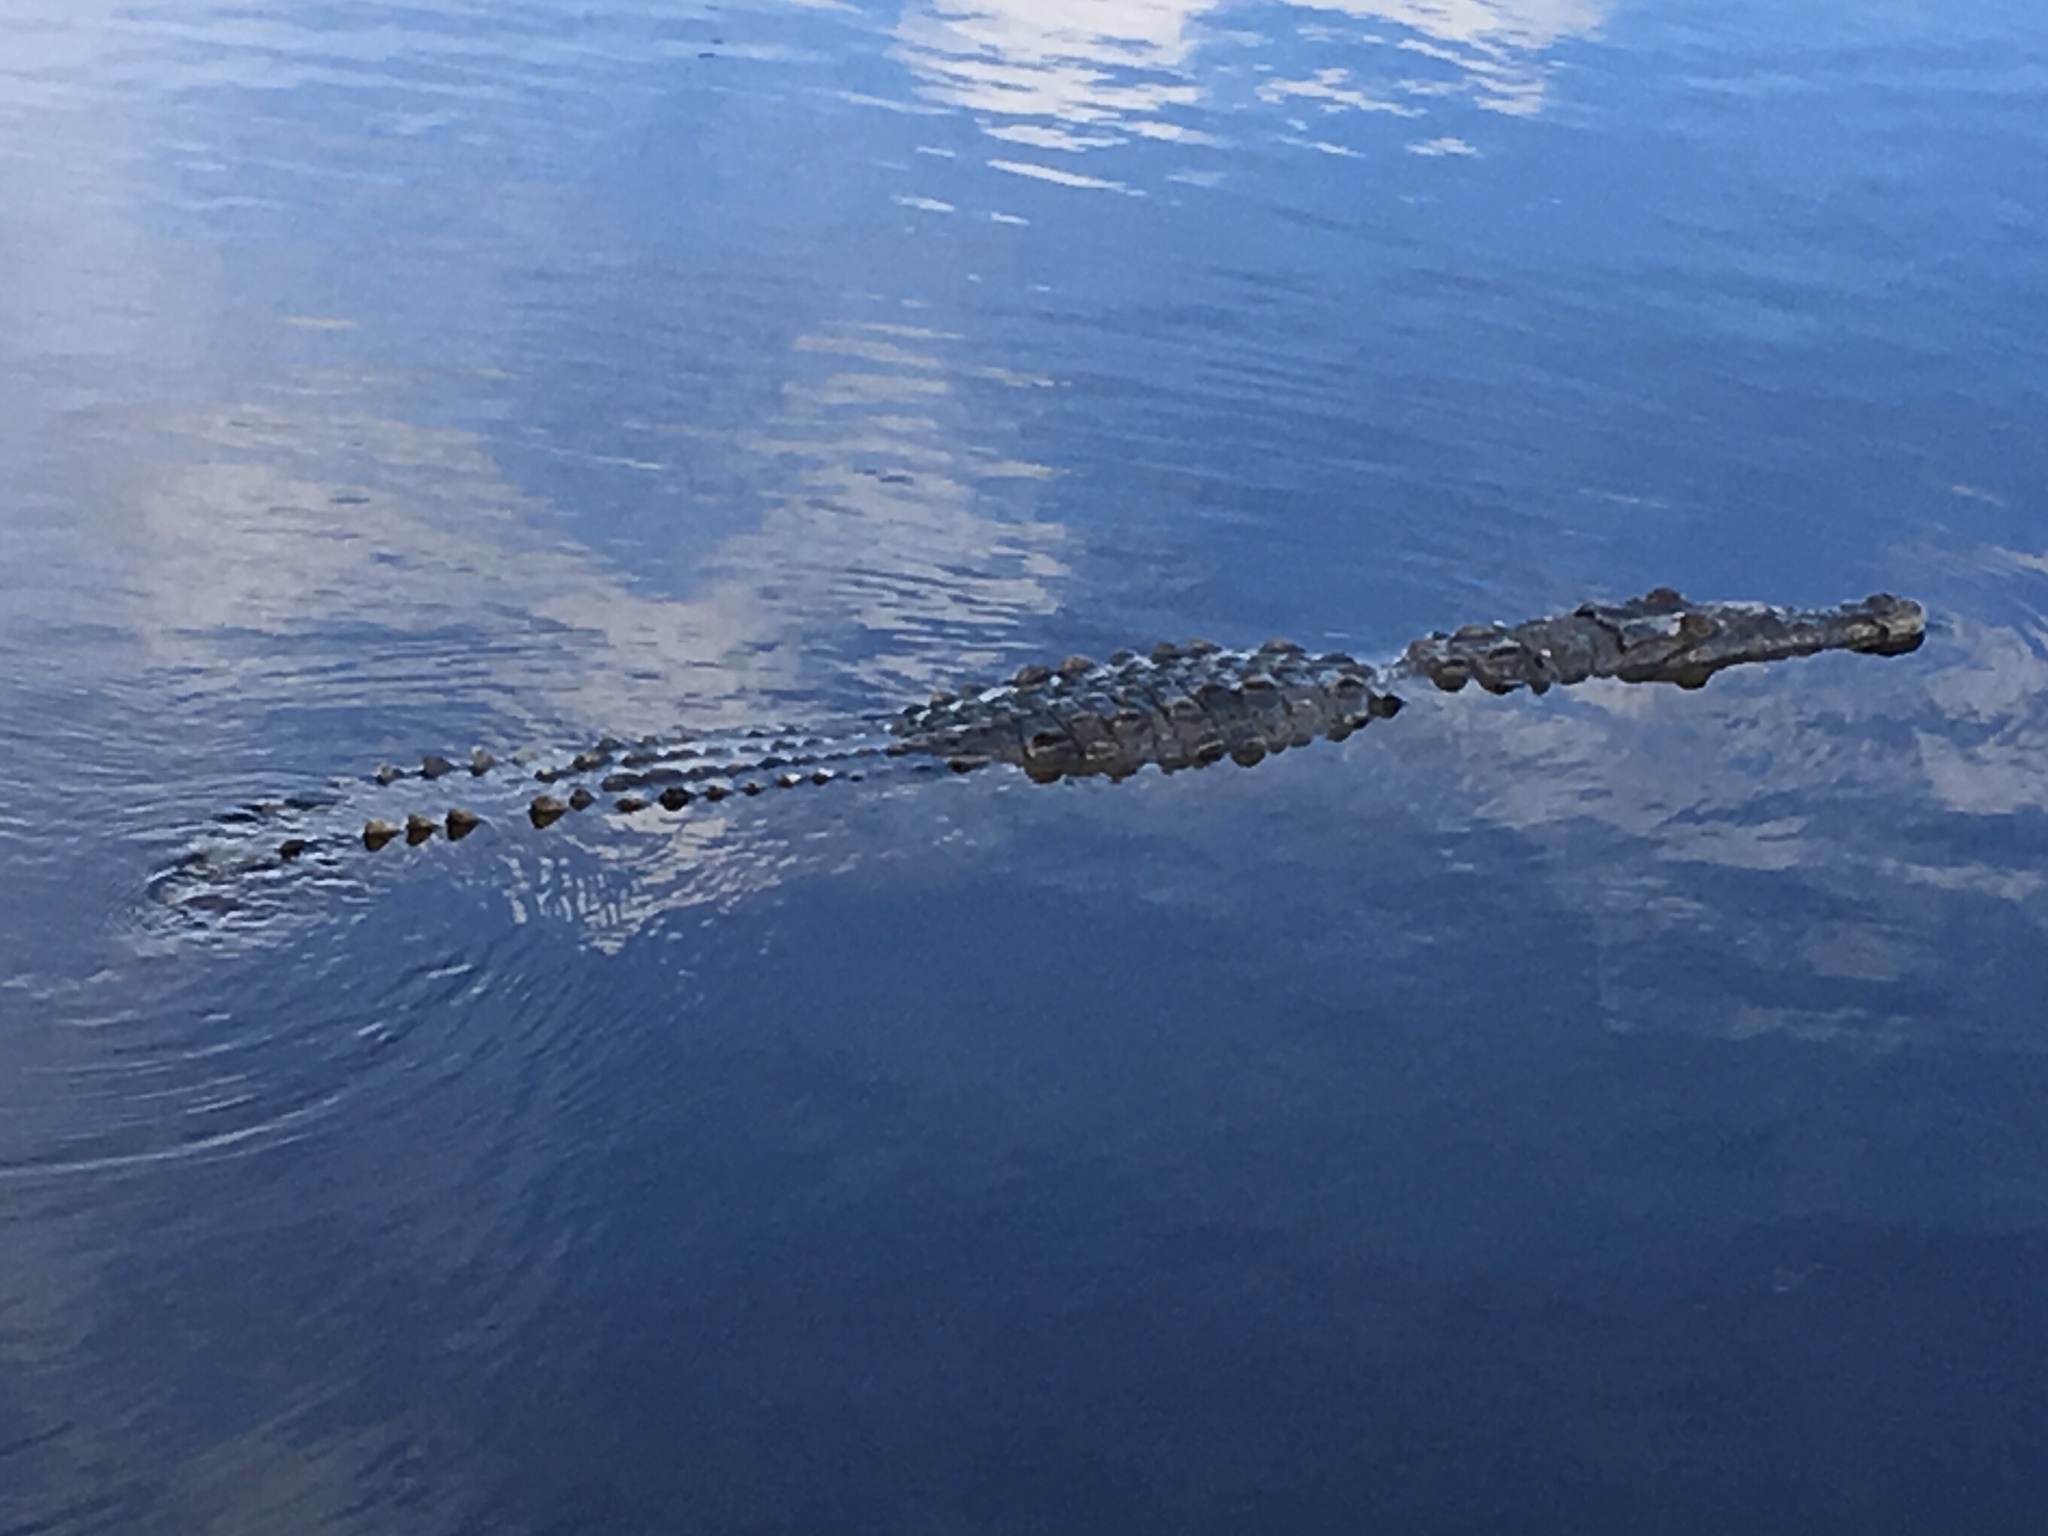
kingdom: Animalia
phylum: Chordata
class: Crocodylia
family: Crocodylidae
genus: Crocodylus
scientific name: Crocodylus acutus
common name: American crocodile
